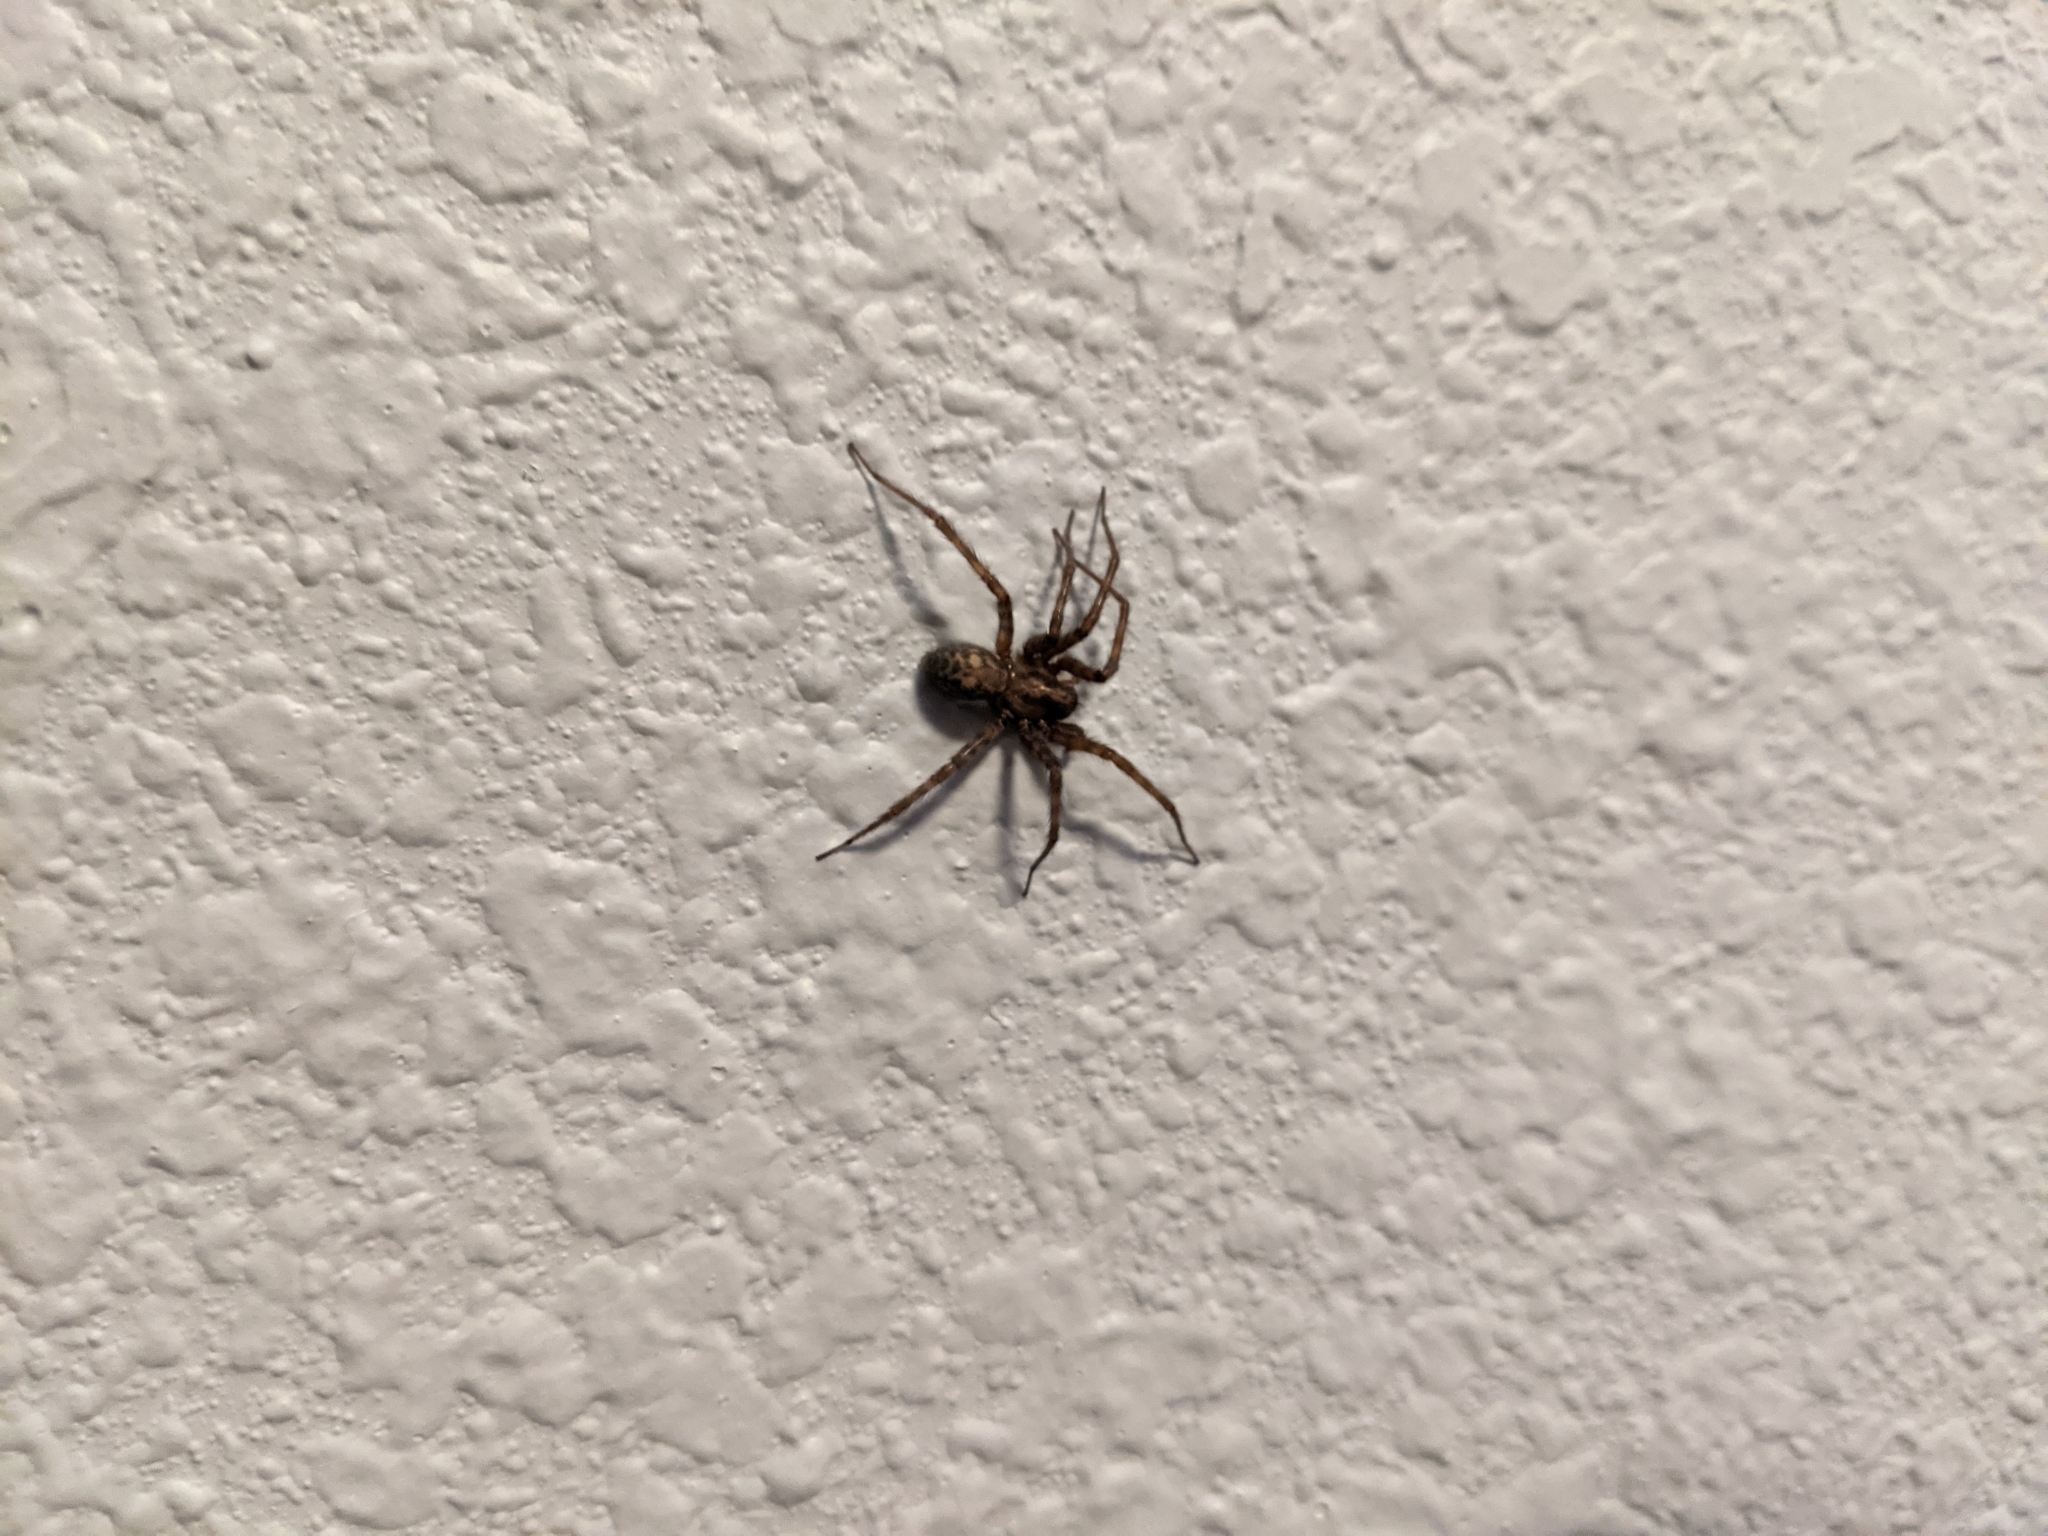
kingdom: Animalia
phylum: Arthropoda
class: Arachnida
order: Araneae
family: Agelenidae
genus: Tegenaria
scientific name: Tegenaria domestica
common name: Barn funnel weaver
